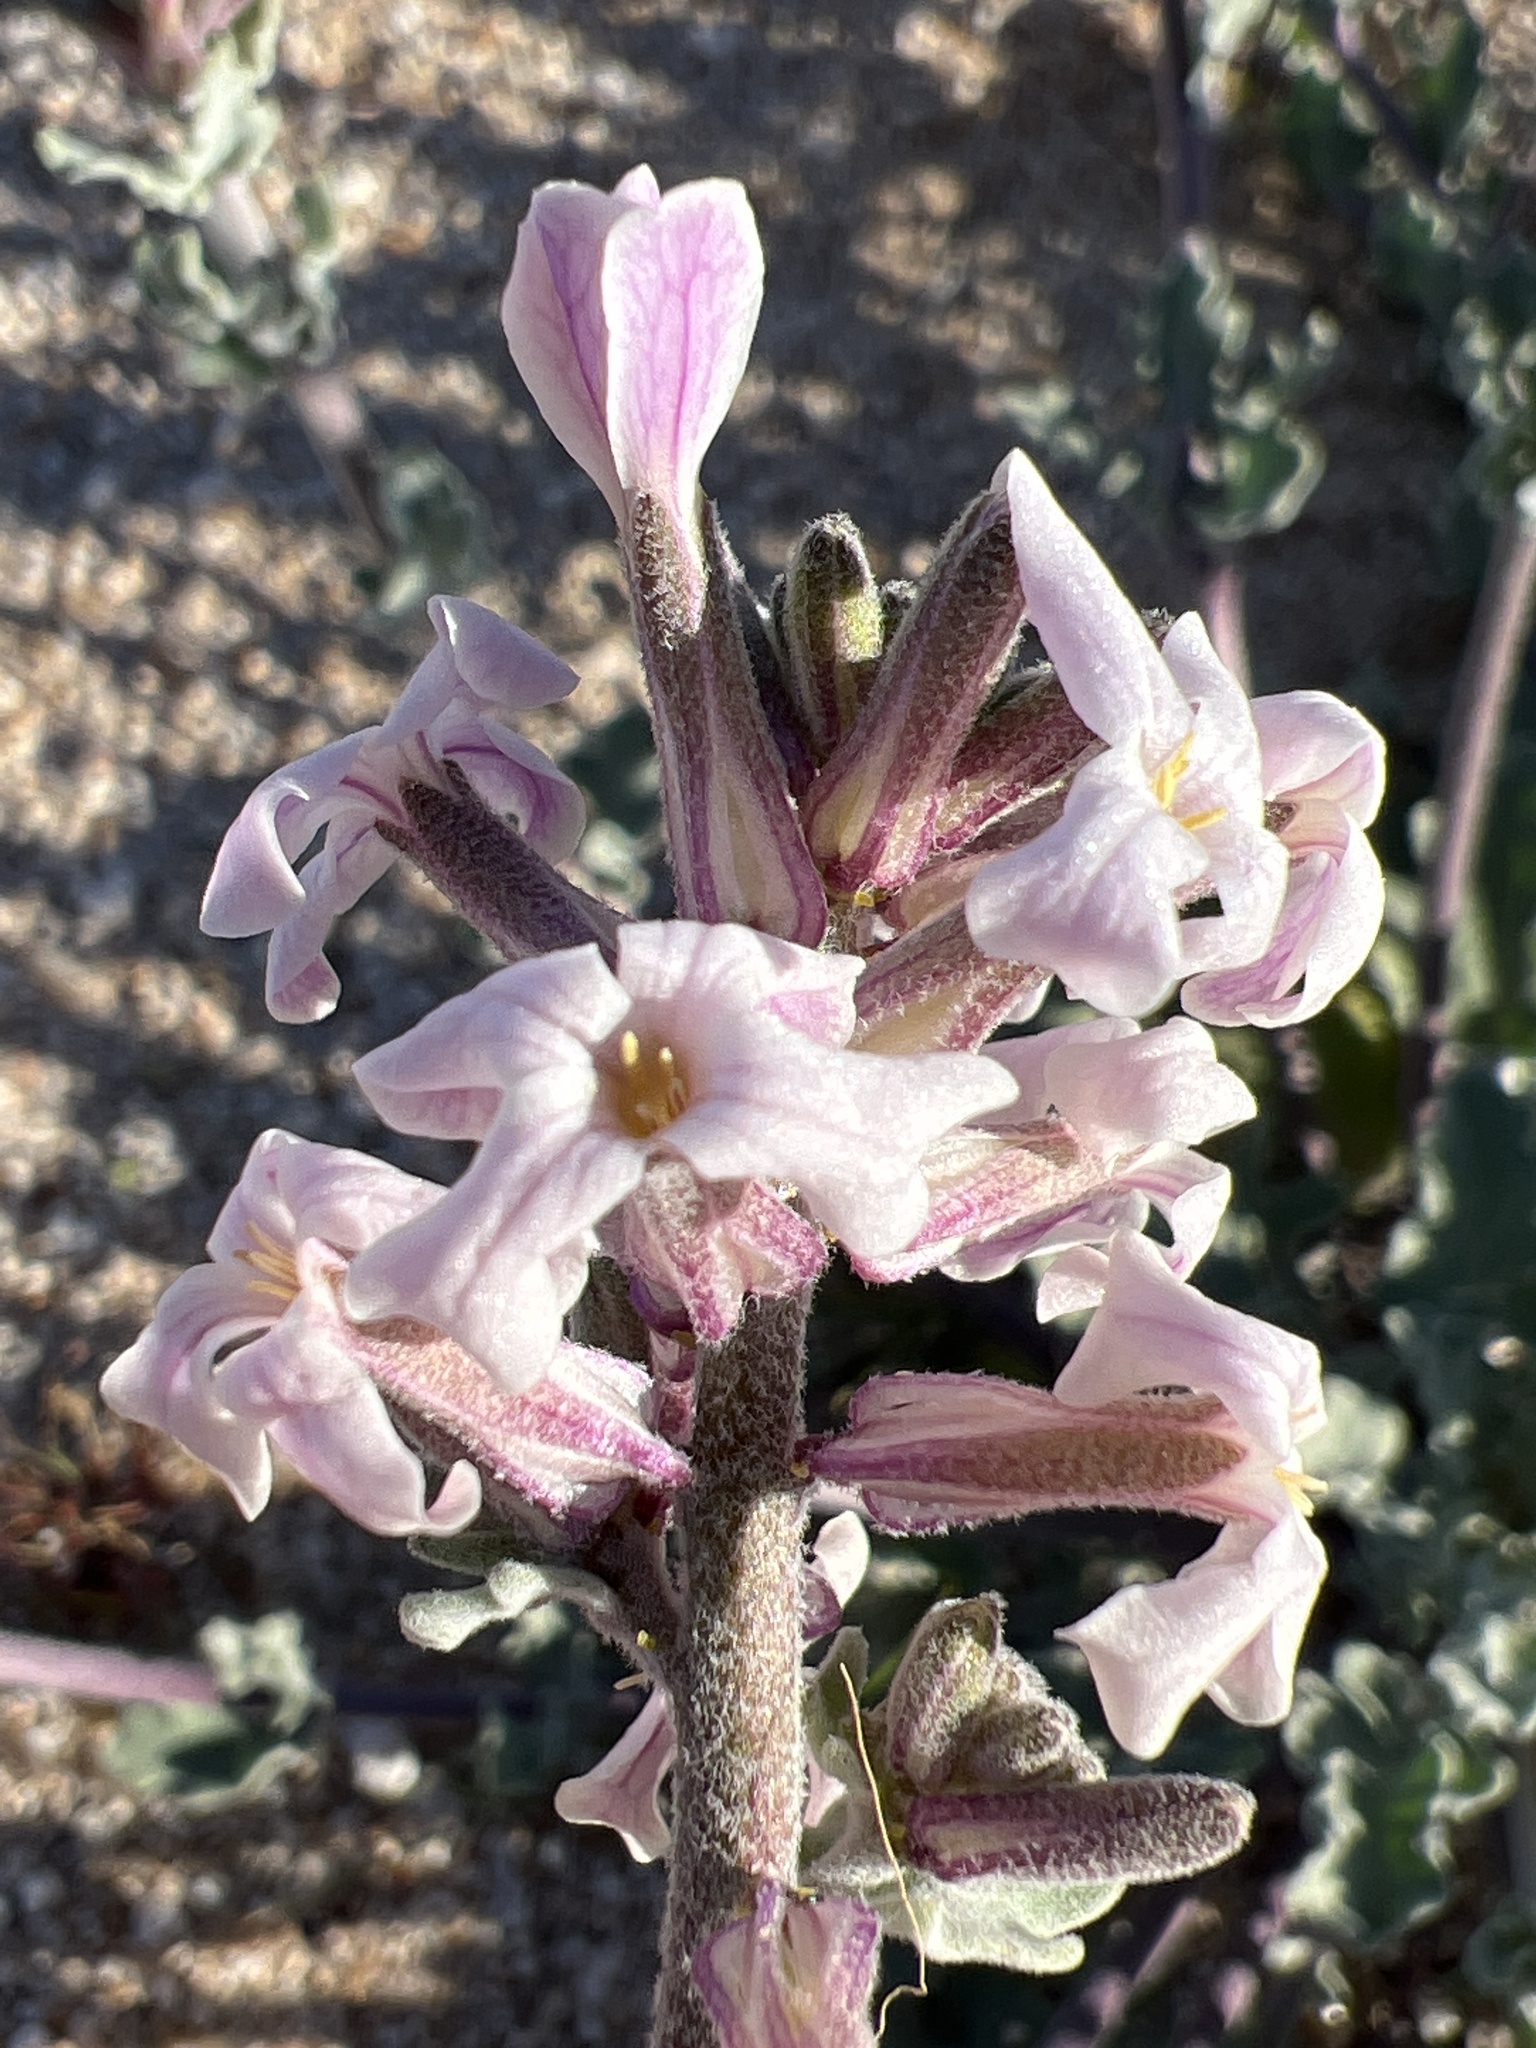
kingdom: Plantae
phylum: Tracheophyta
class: Magnoliopsida
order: Brassicales
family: Brassicaceae
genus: Dithyrea
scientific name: Dithyrea californica
